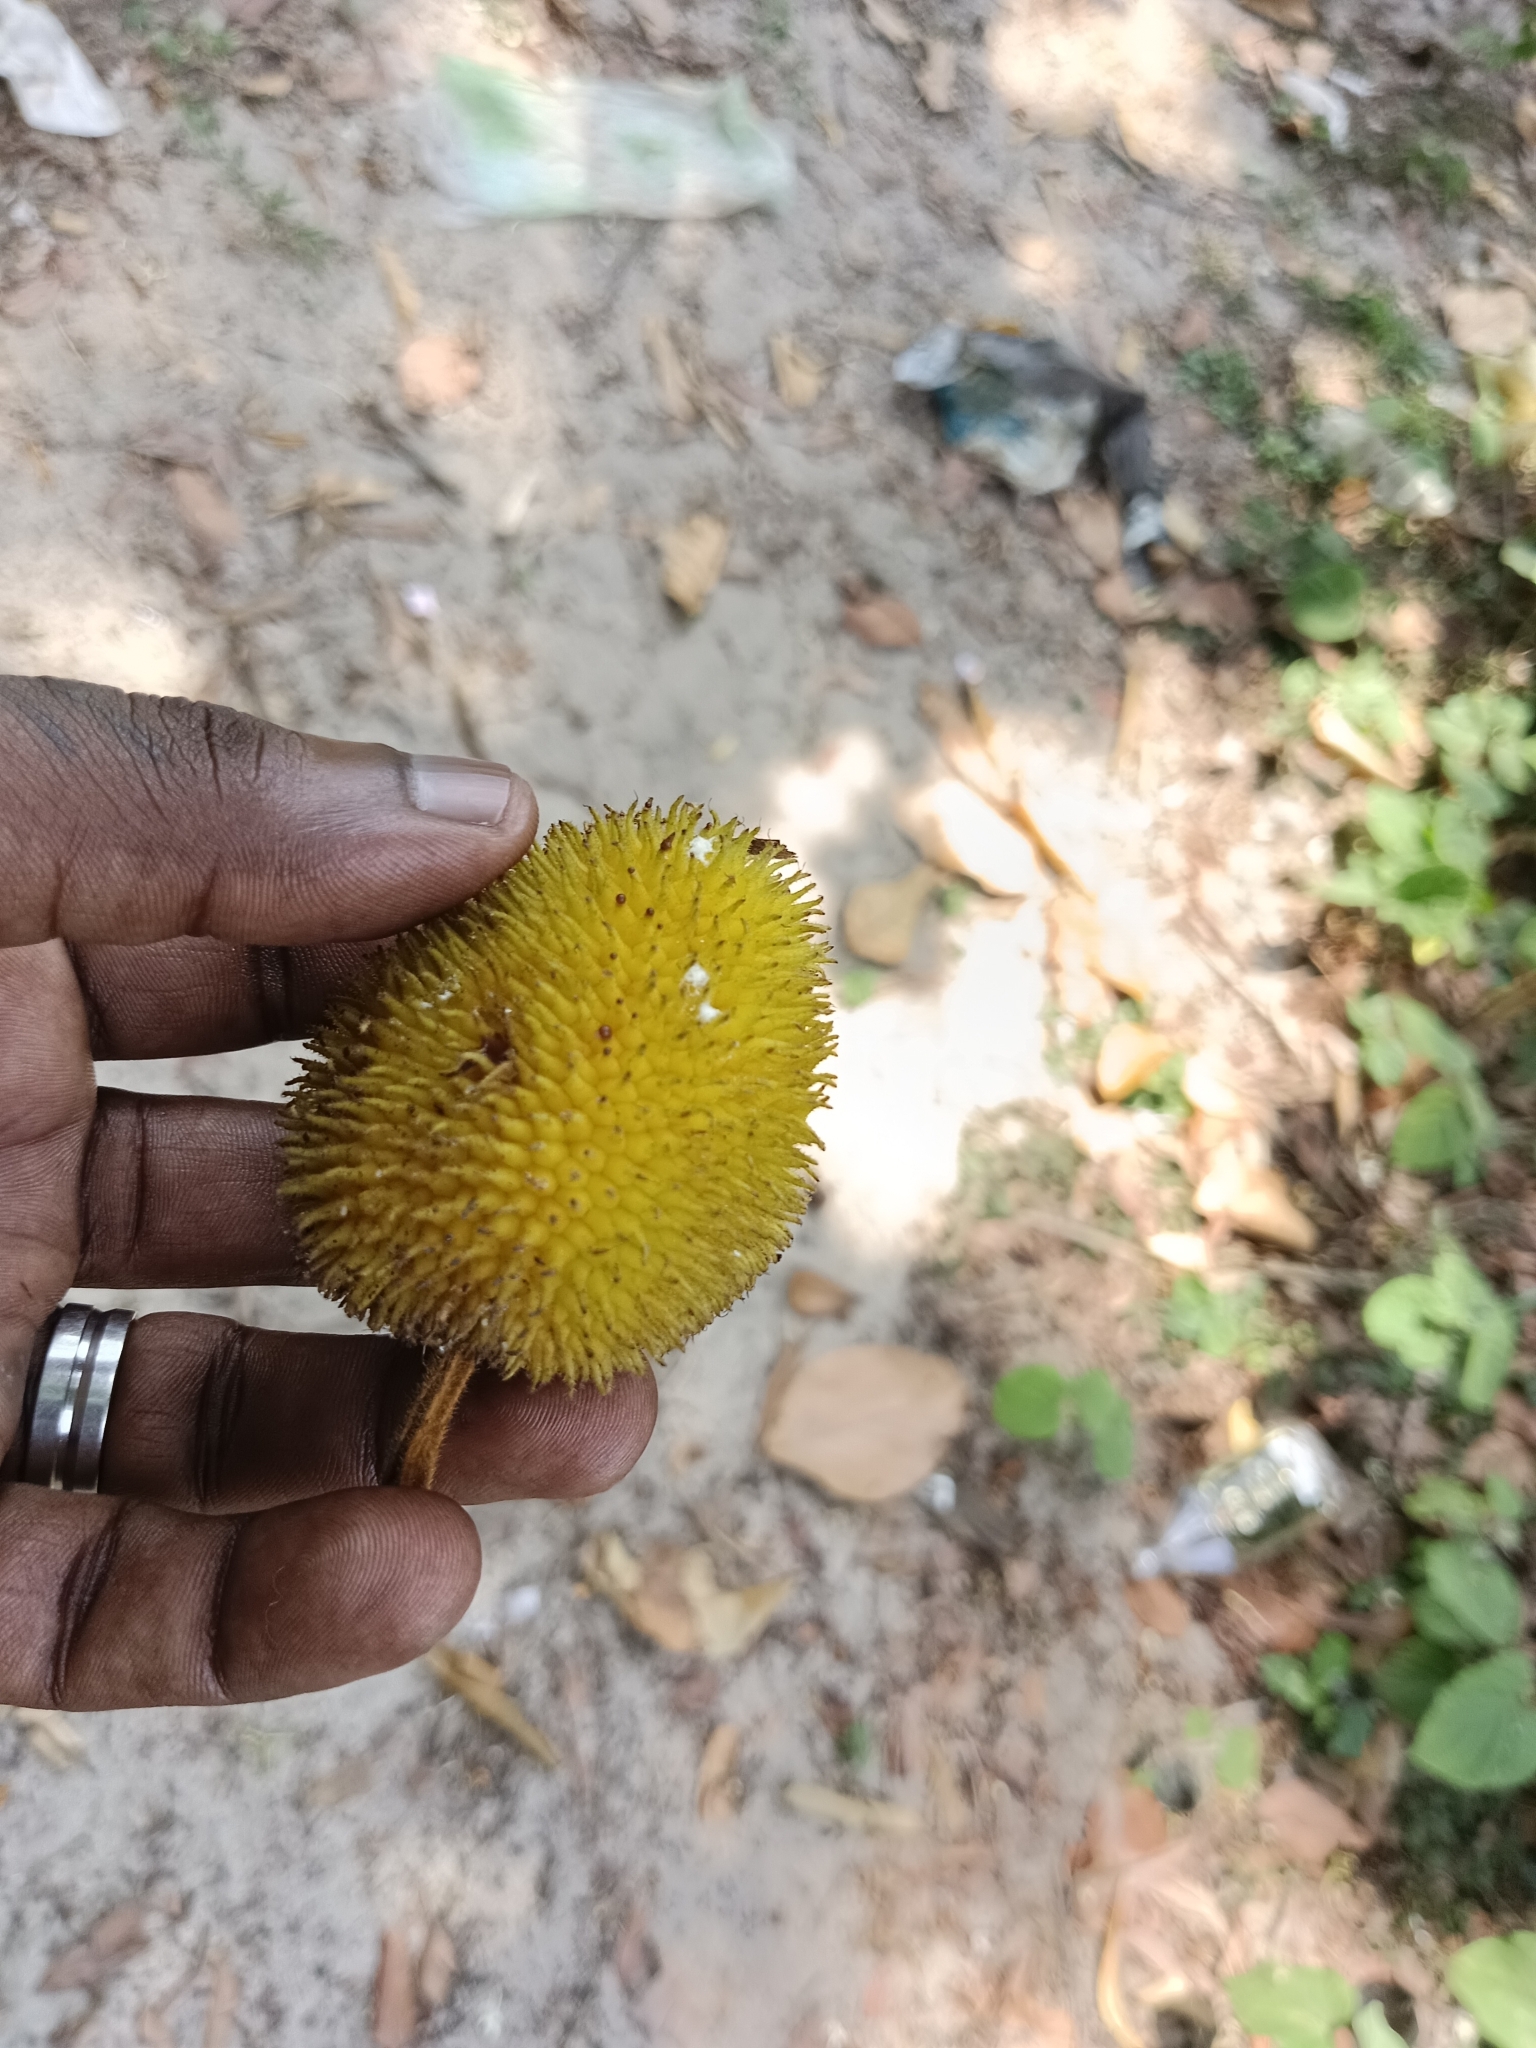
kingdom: Plantae
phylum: Tracheophyta
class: Magnoliopsida
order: Rosales
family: Moraceae
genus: Artocarpus
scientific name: Artocarpus hirsutus
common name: Hairy bread-fruit tree
